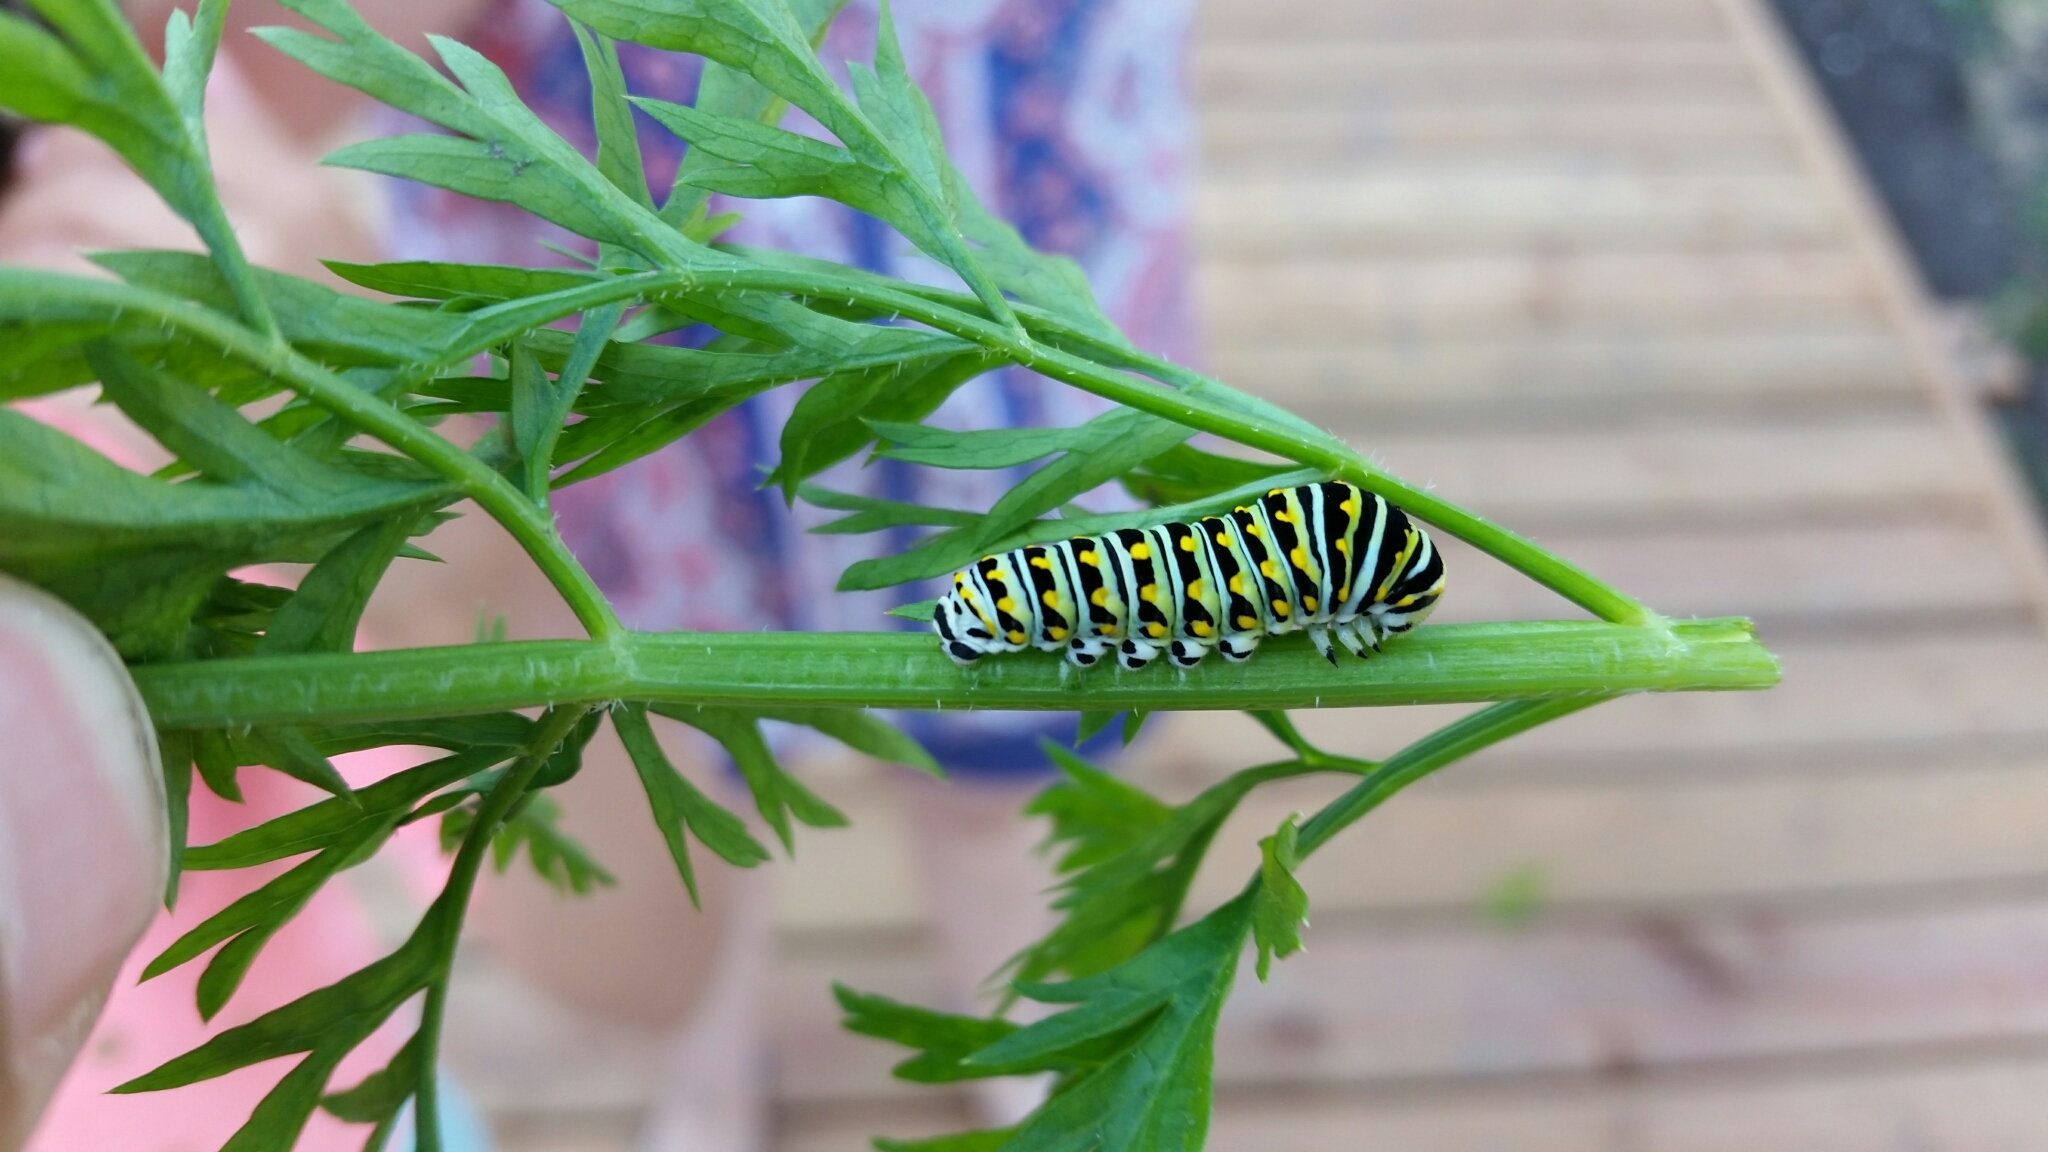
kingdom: Animalia
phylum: Arthropoda
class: Insecta
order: Lepidoptera
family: Papilionidae
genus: Papilio
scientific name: Papilio polyxenes
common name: Black swallowtail
